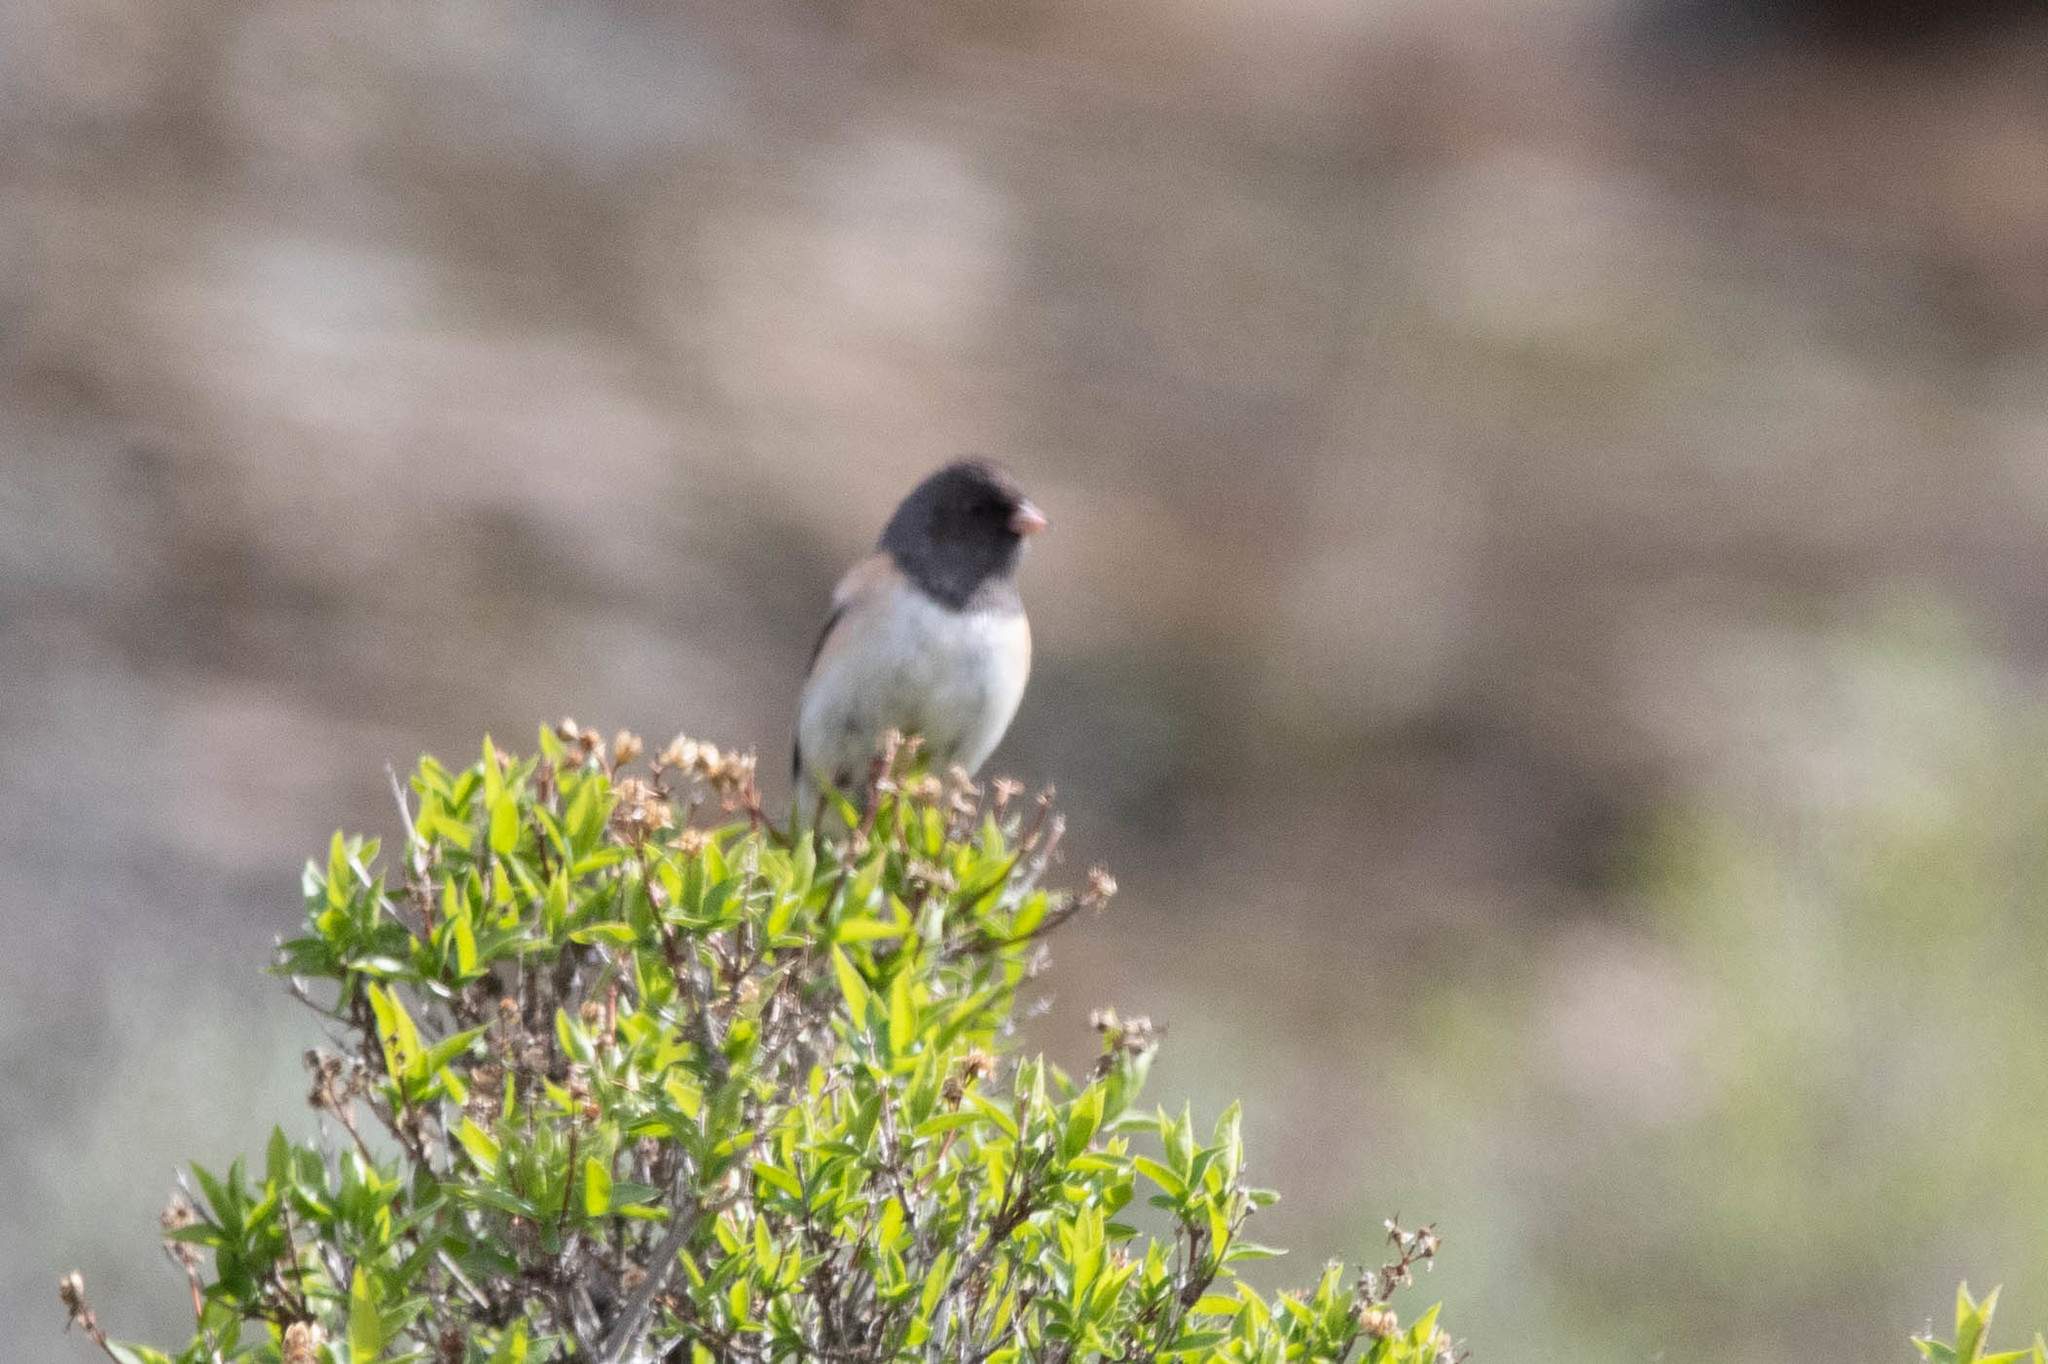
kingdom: Animalia
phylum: Chordata
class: Aves
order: Passeriformes
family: Passerellidae
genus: Junco
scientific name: Junco hyemalis
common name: Dark-eyed junco
